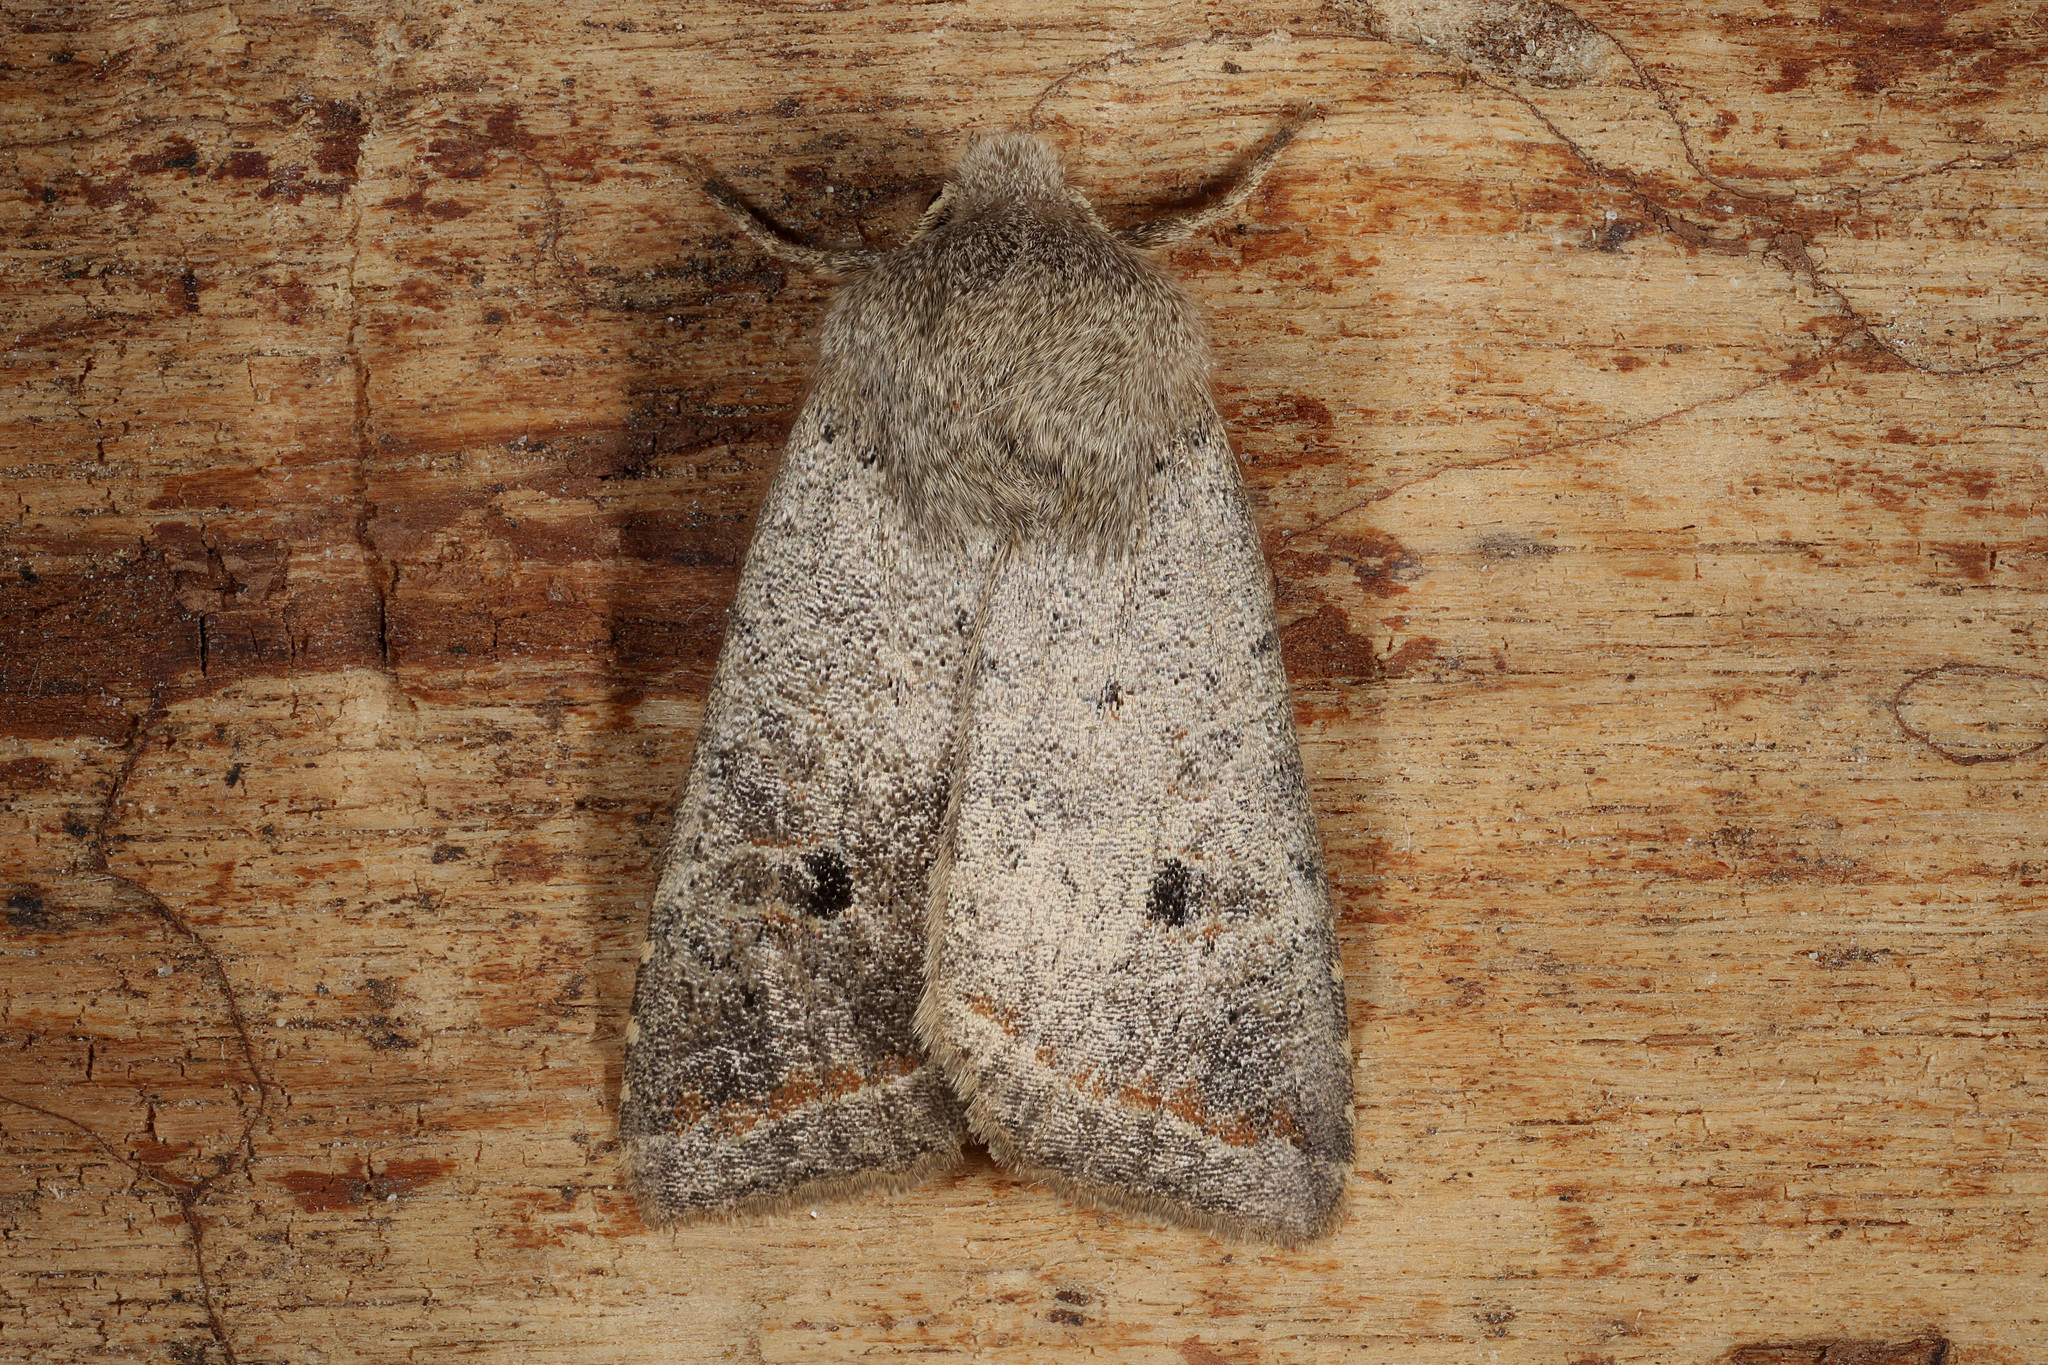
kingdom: Animalia
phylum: Arthropoda
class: Insecta
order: Lepidoptera
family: Noctuidae
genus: Agrochola
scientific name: Agrochola lota
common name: Red-line quaker
